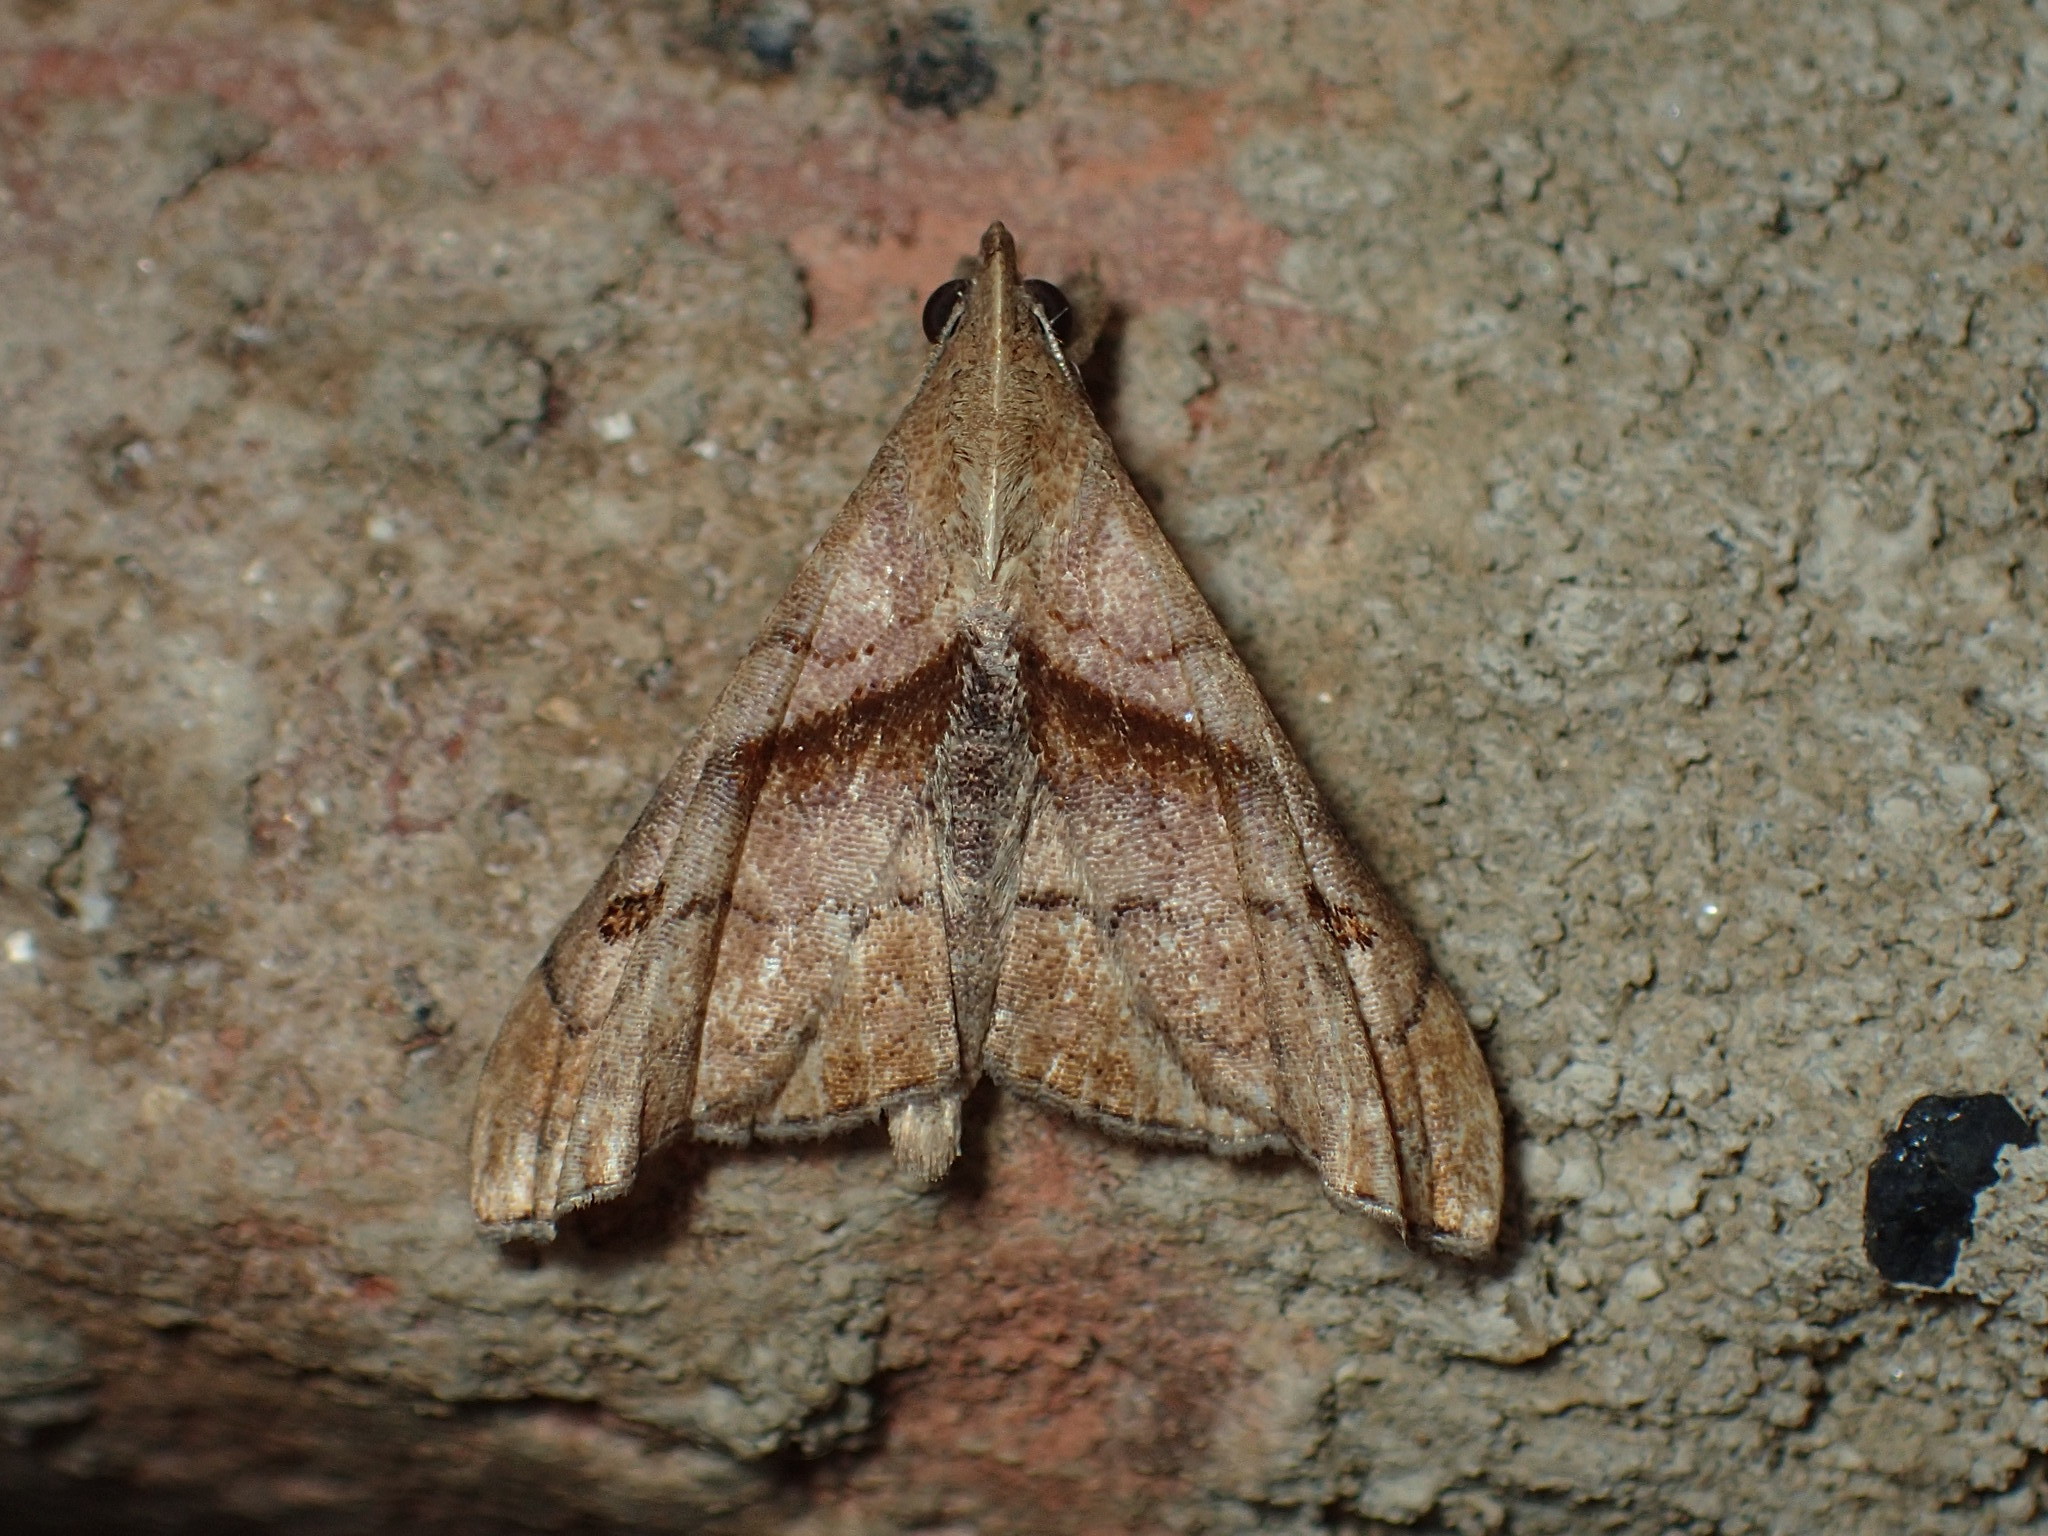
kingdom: Animalia
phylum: Arthropoda
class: Insecta
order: Lepidoptera
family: Erebidae
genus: Palthis
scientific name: Palthis angulalis
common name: Dark-spotted palthis moth
